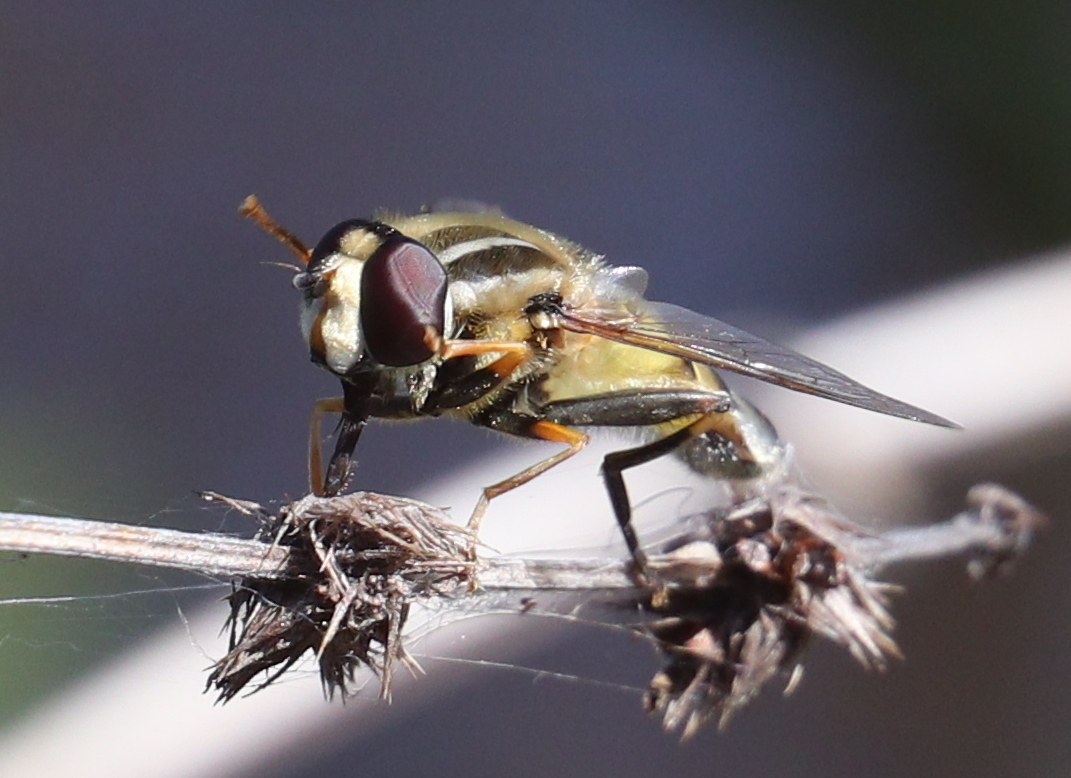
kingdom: Animalia
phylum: Arthropoda
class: Insecta
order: Diptera
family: Syrphidae
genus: Helophilus
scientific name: Helophilus trivittatus
